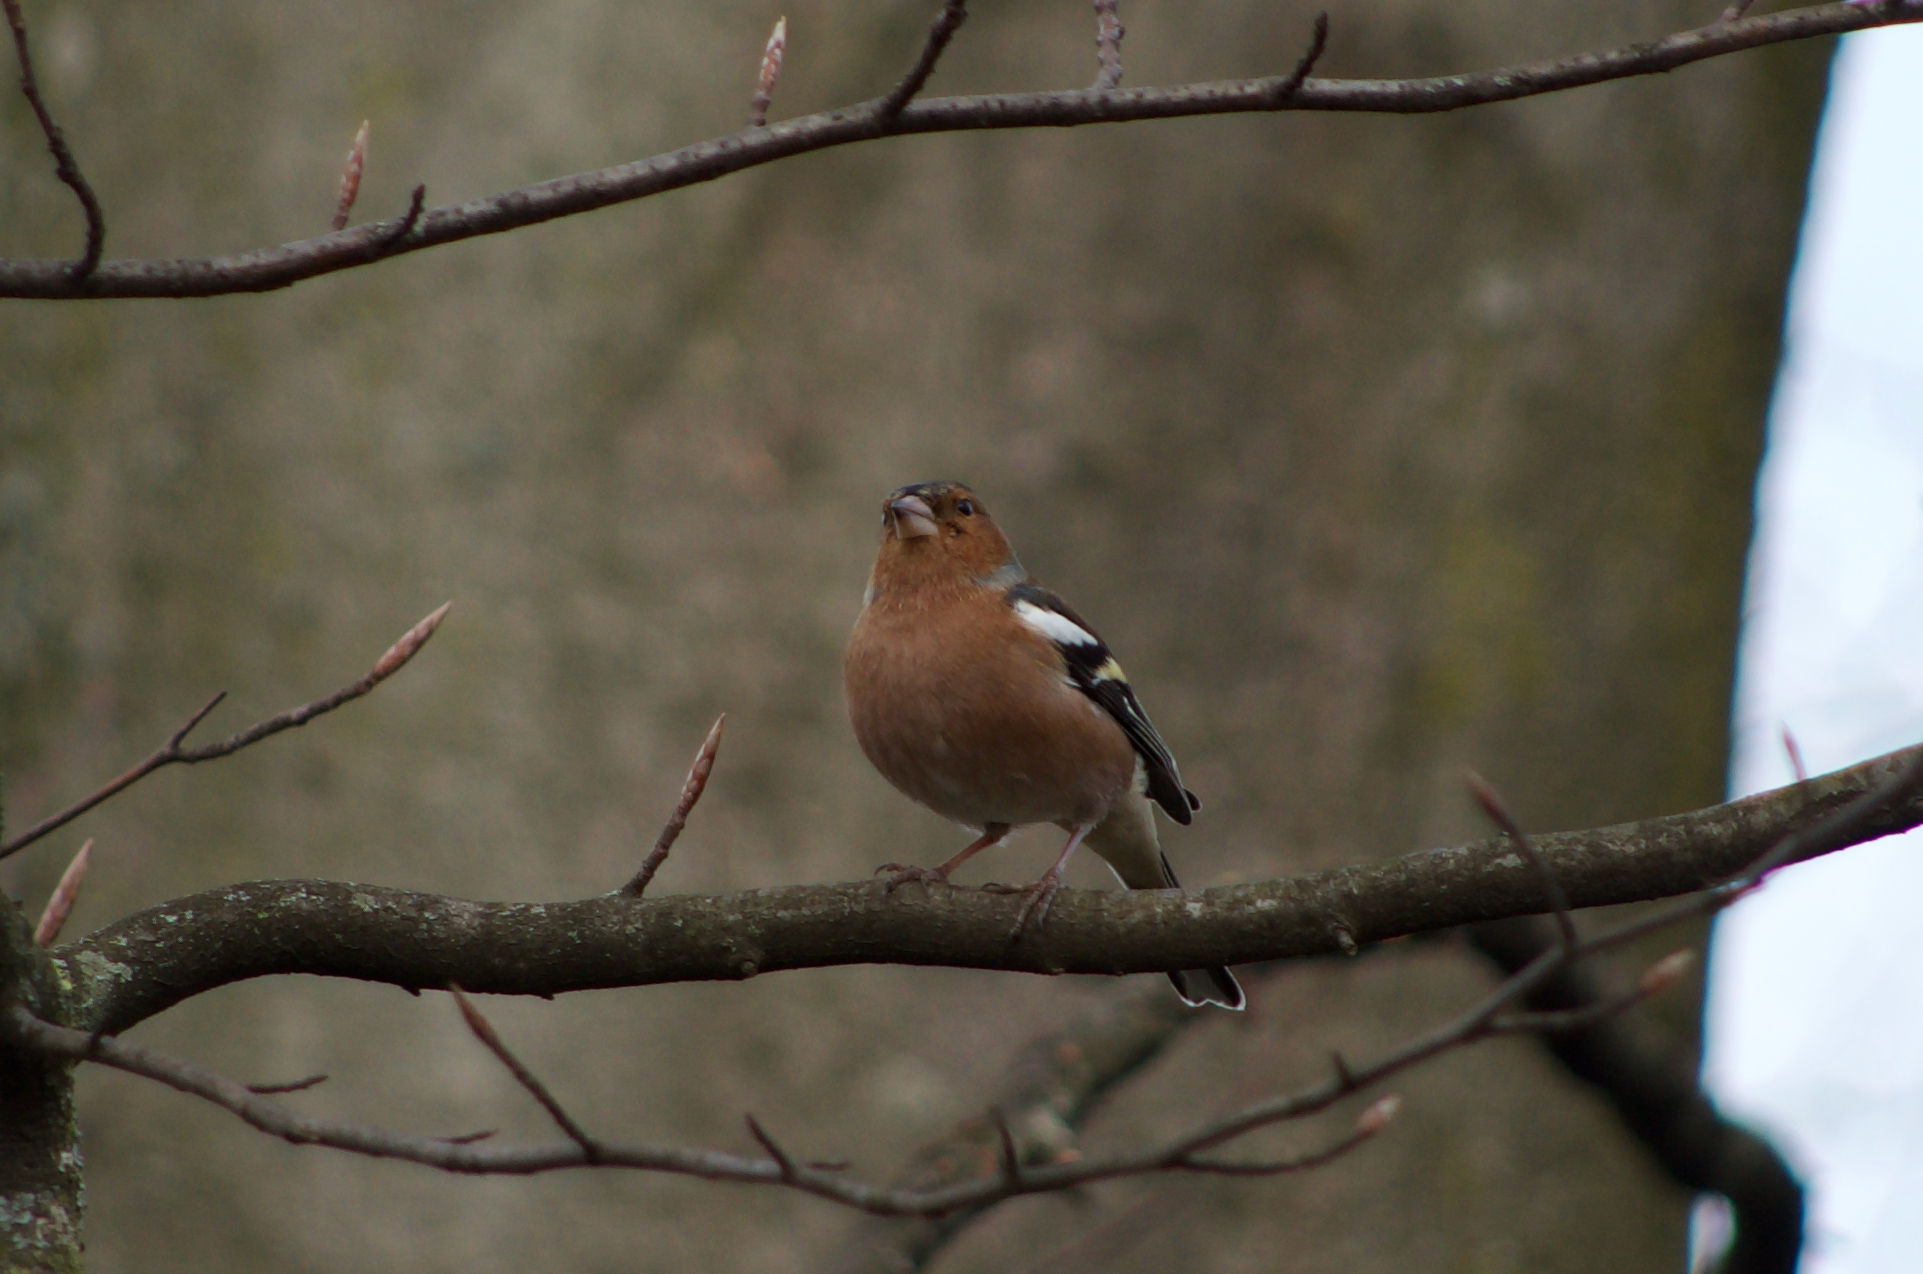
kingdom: Animalia
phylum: Chordata
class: Aves
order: Passeriformes
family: Fringillidae
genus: Fringilla
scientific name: Fringilla coelebs
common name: Common chaffinch
